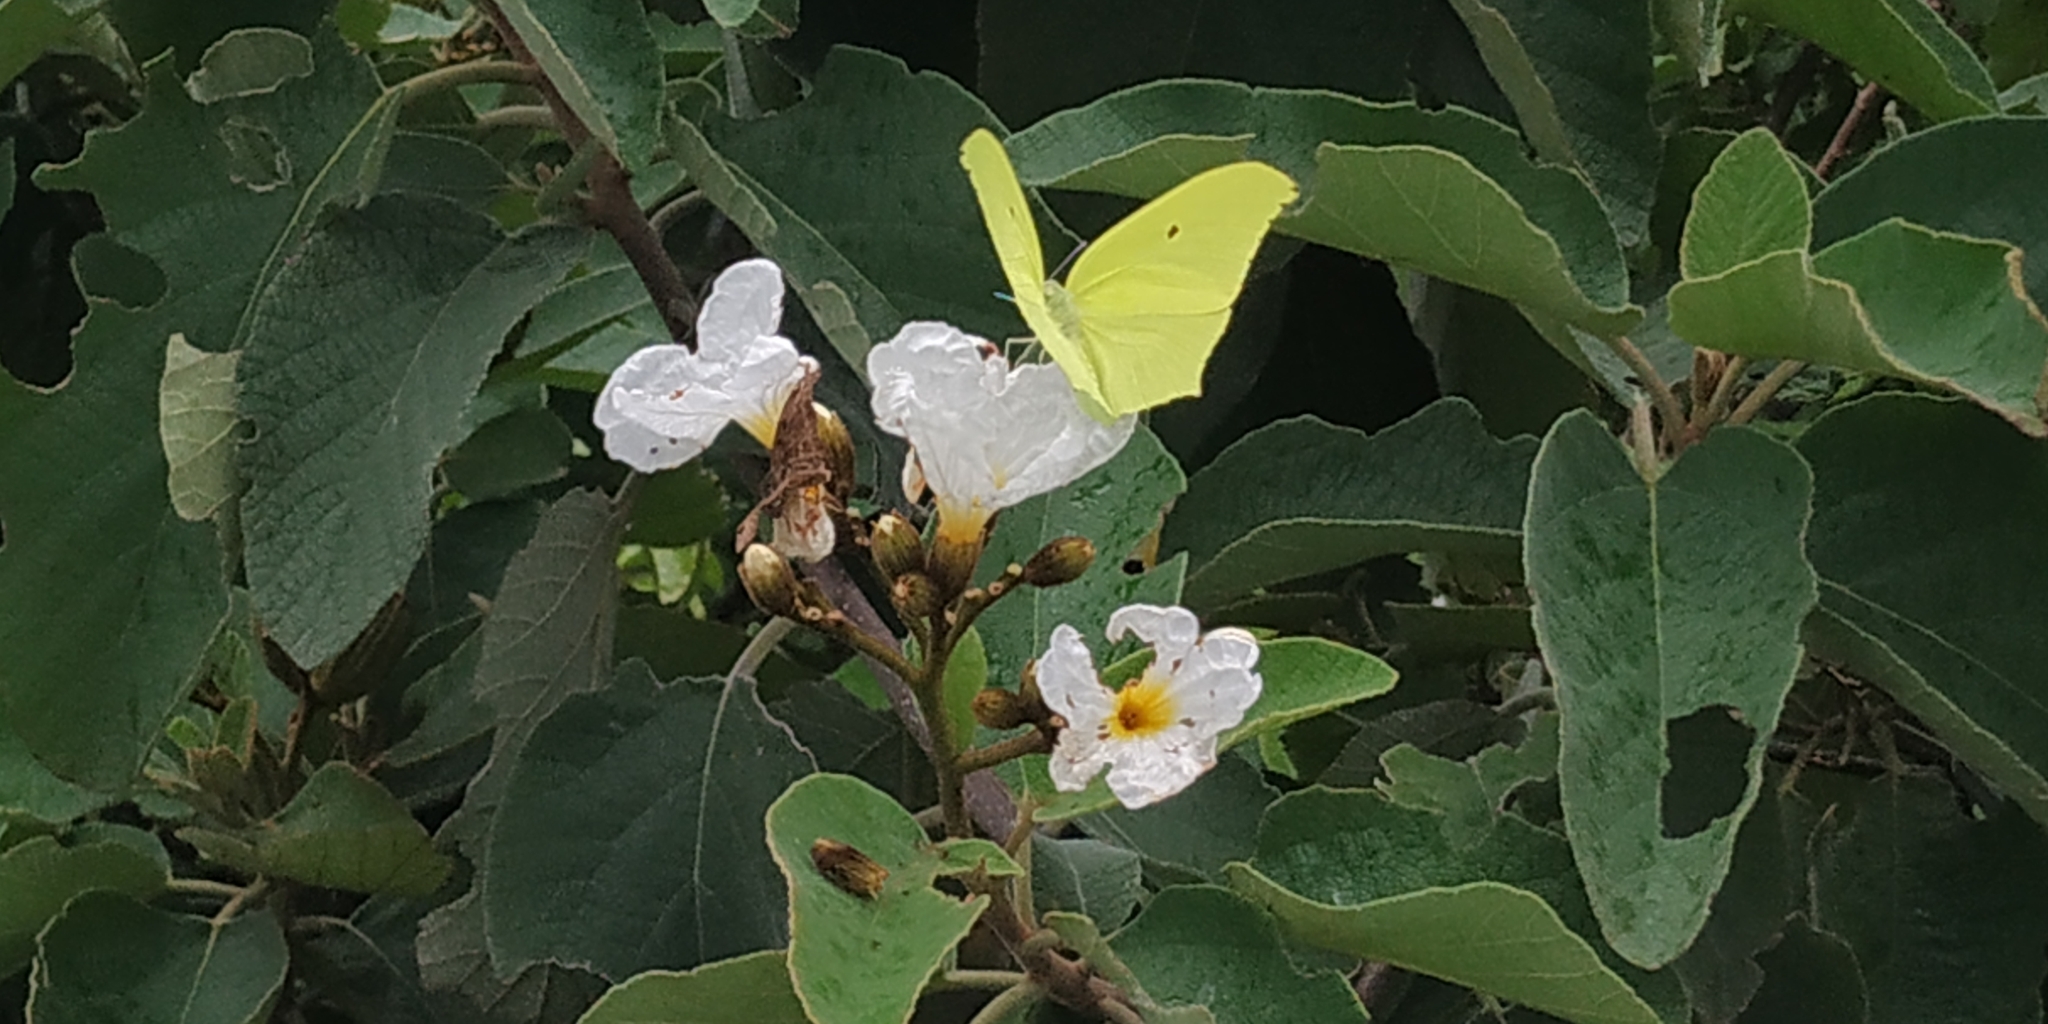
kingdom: Animalia
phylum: Arthropoda
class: Insecta
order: Lepidoptera
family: Pieridae
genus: Anteos
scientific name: Anteos maerula
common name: Angled sulphur
